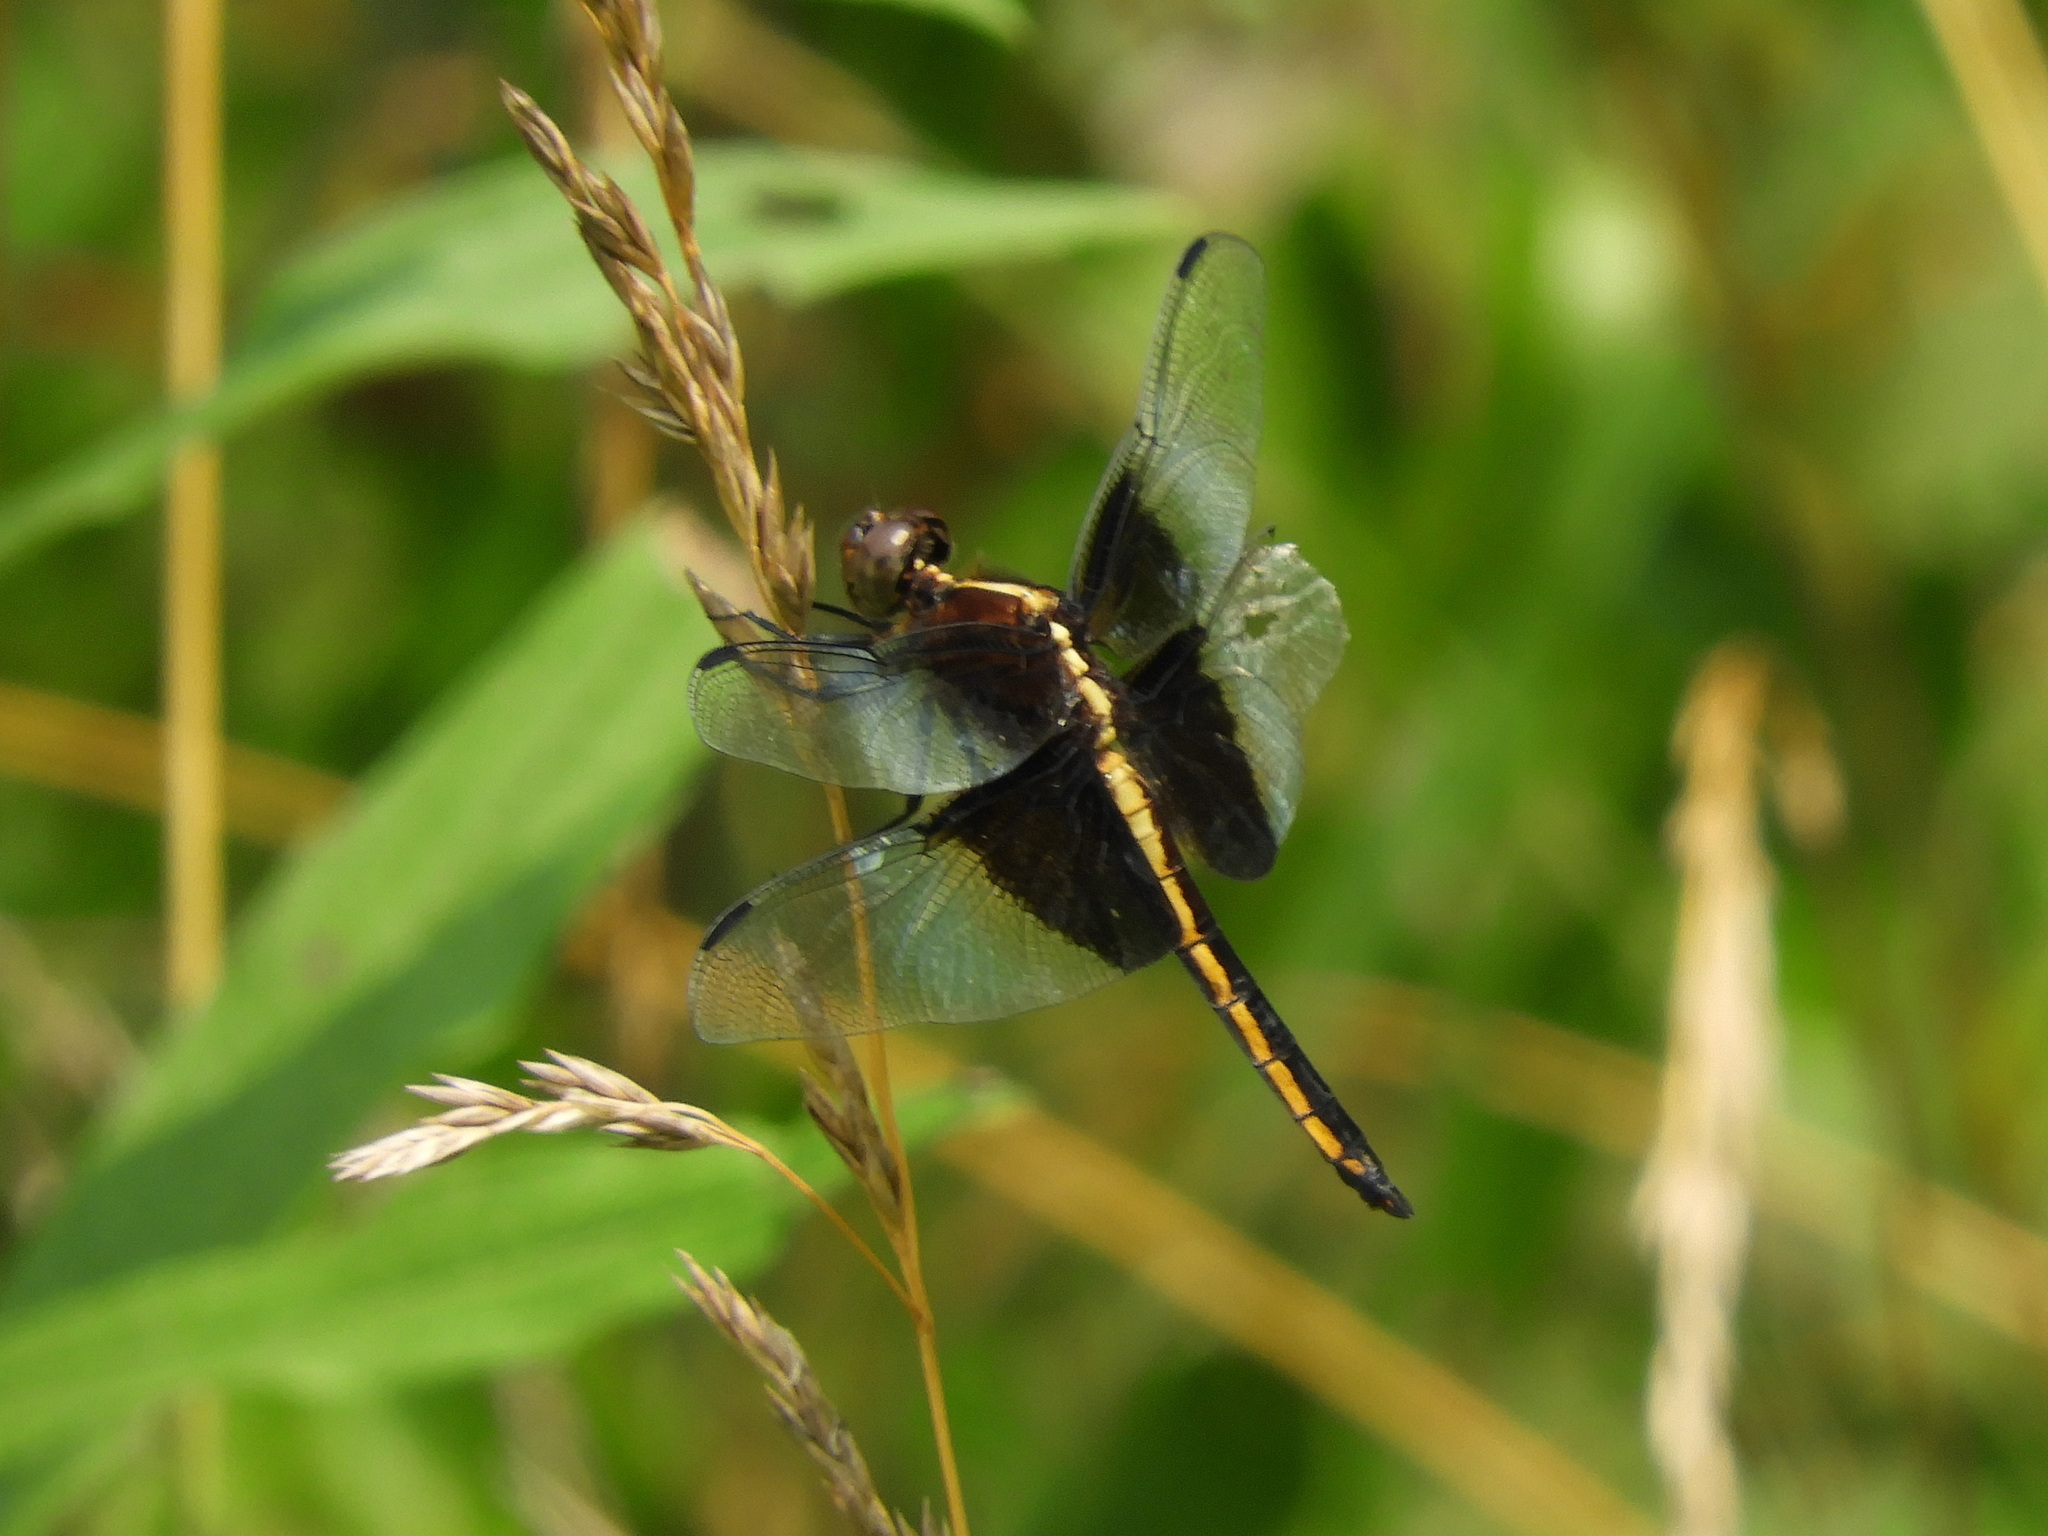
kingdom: Animalia
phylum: Arthropoda
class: Insecta
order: Odonata
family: Libellulidae
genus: Libellula
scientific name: Libellula luctuosa
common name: Widow skimmer
